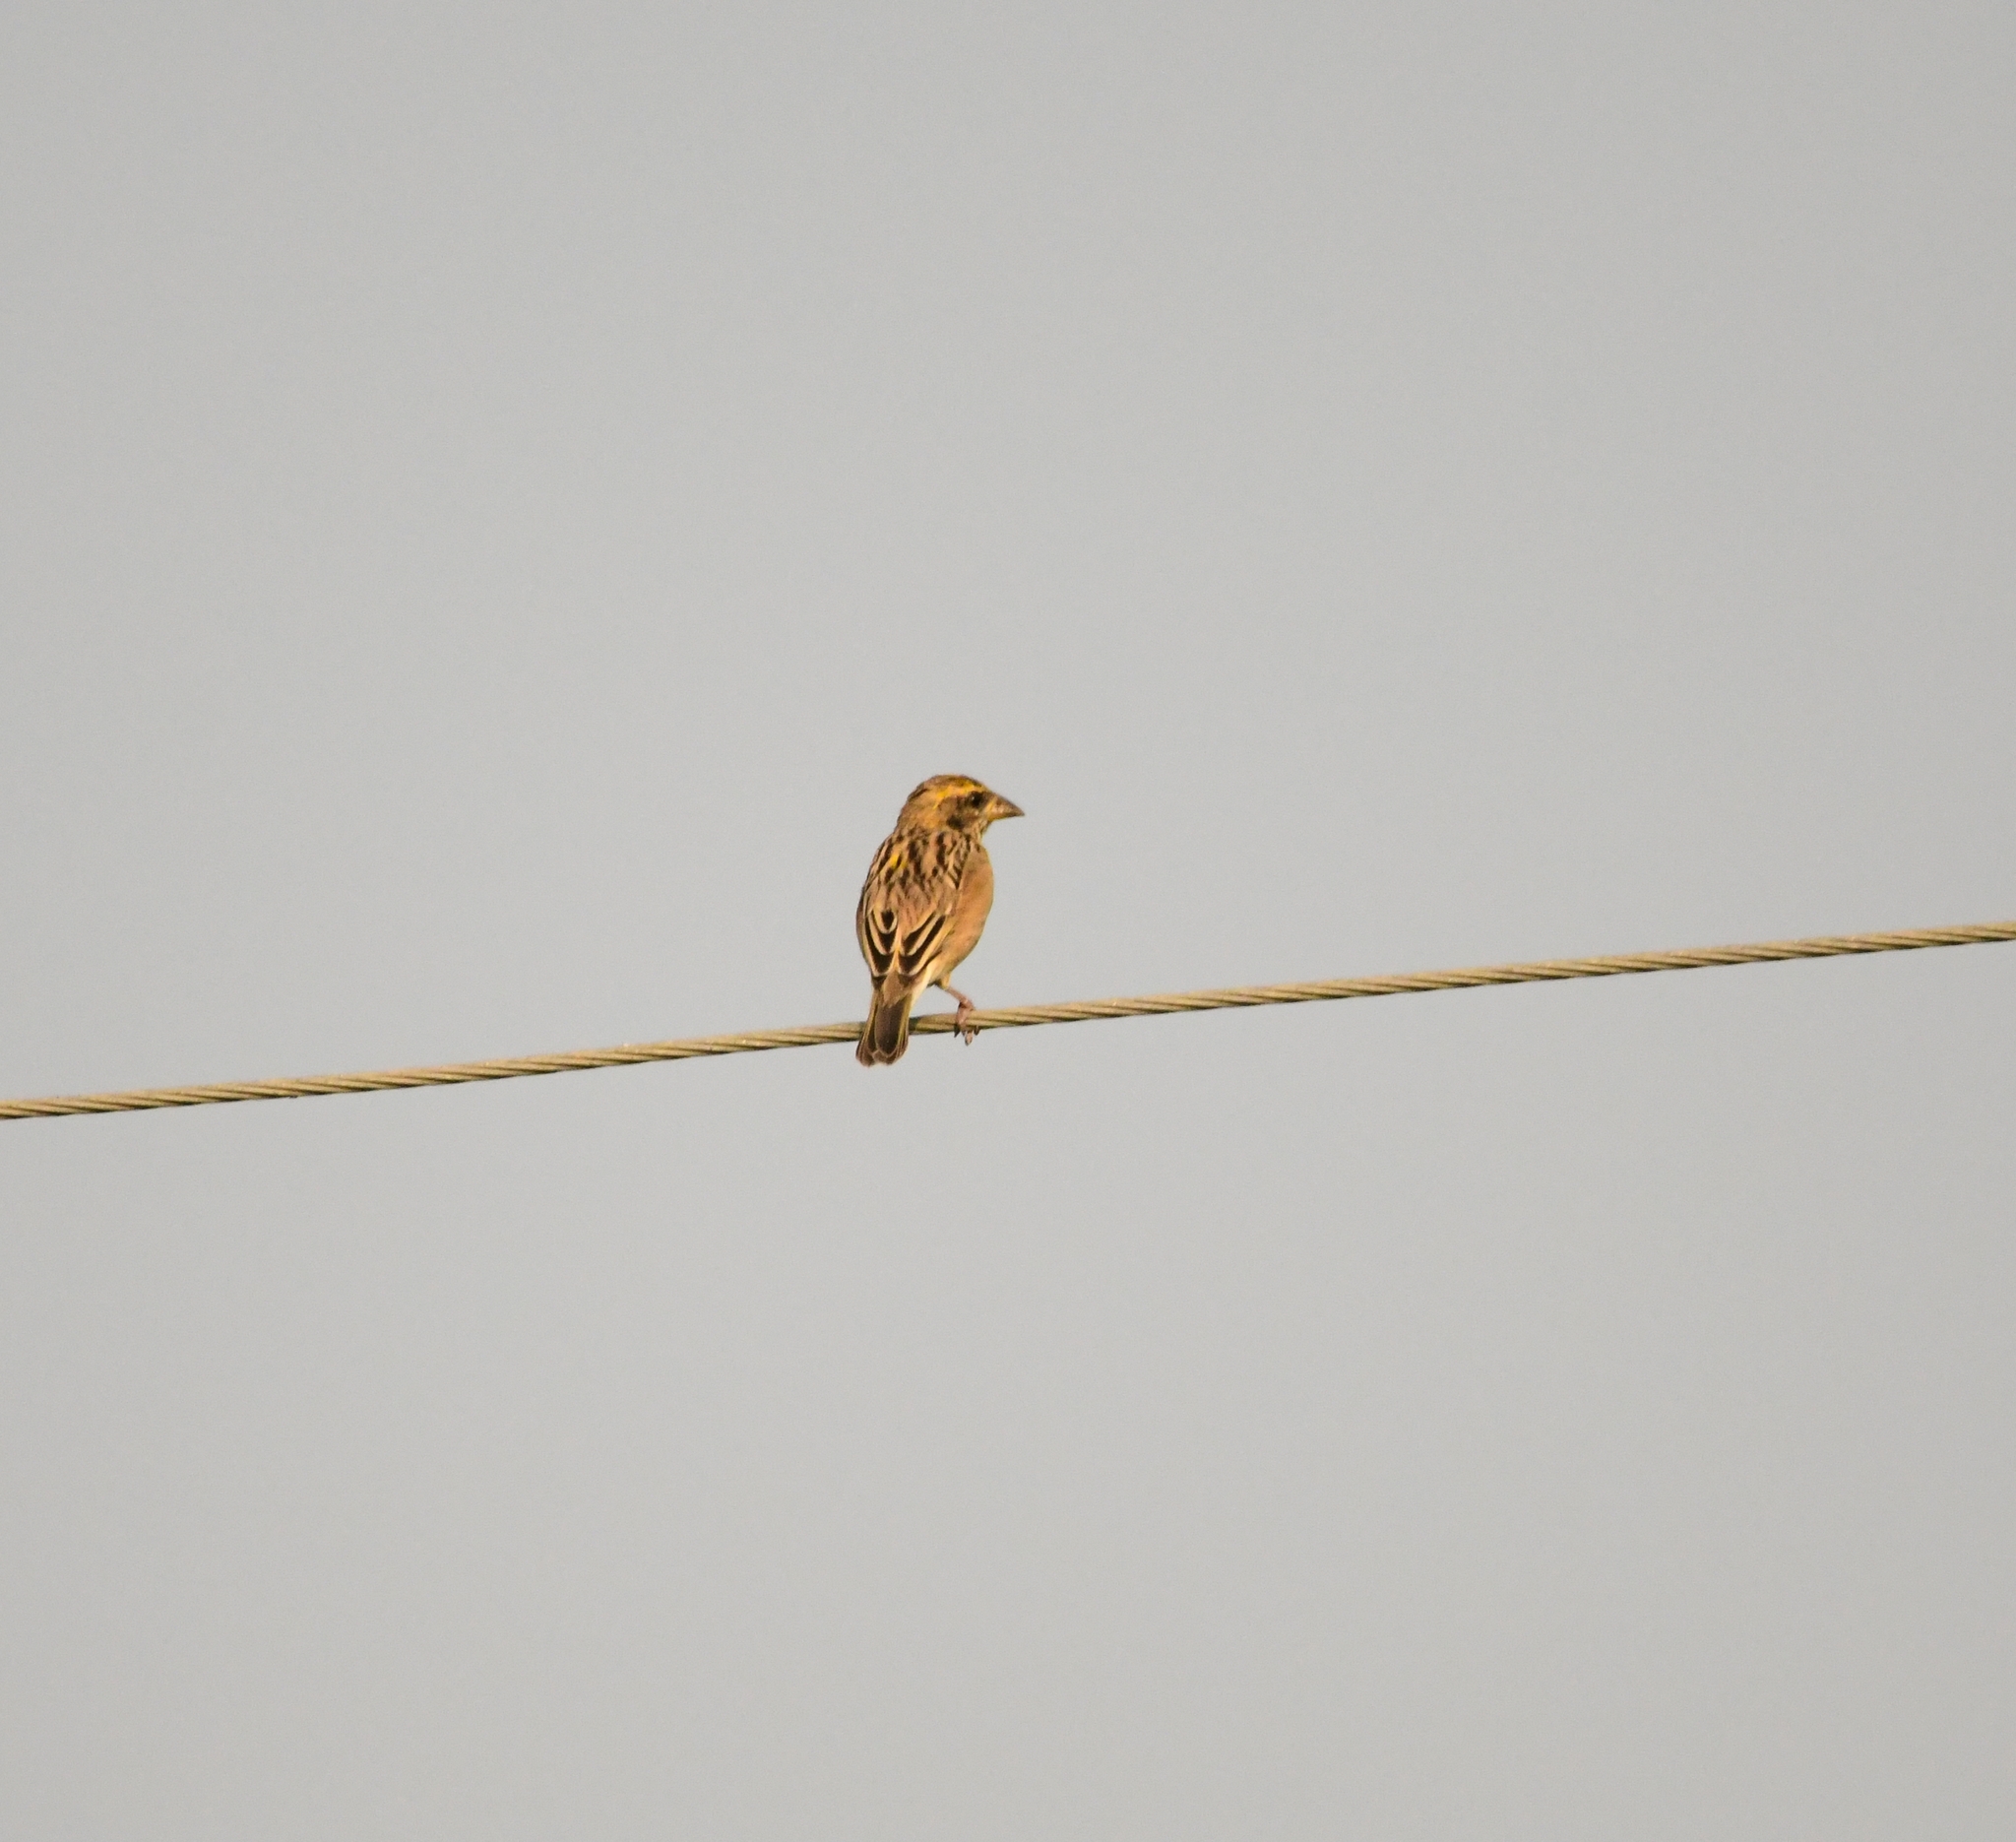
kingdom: Animalia
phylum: Chordata
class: Aves
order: Passeriformes
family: Ploceidae
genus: Ploceus
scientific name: Ploceus philippinus
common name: Baya weaver
